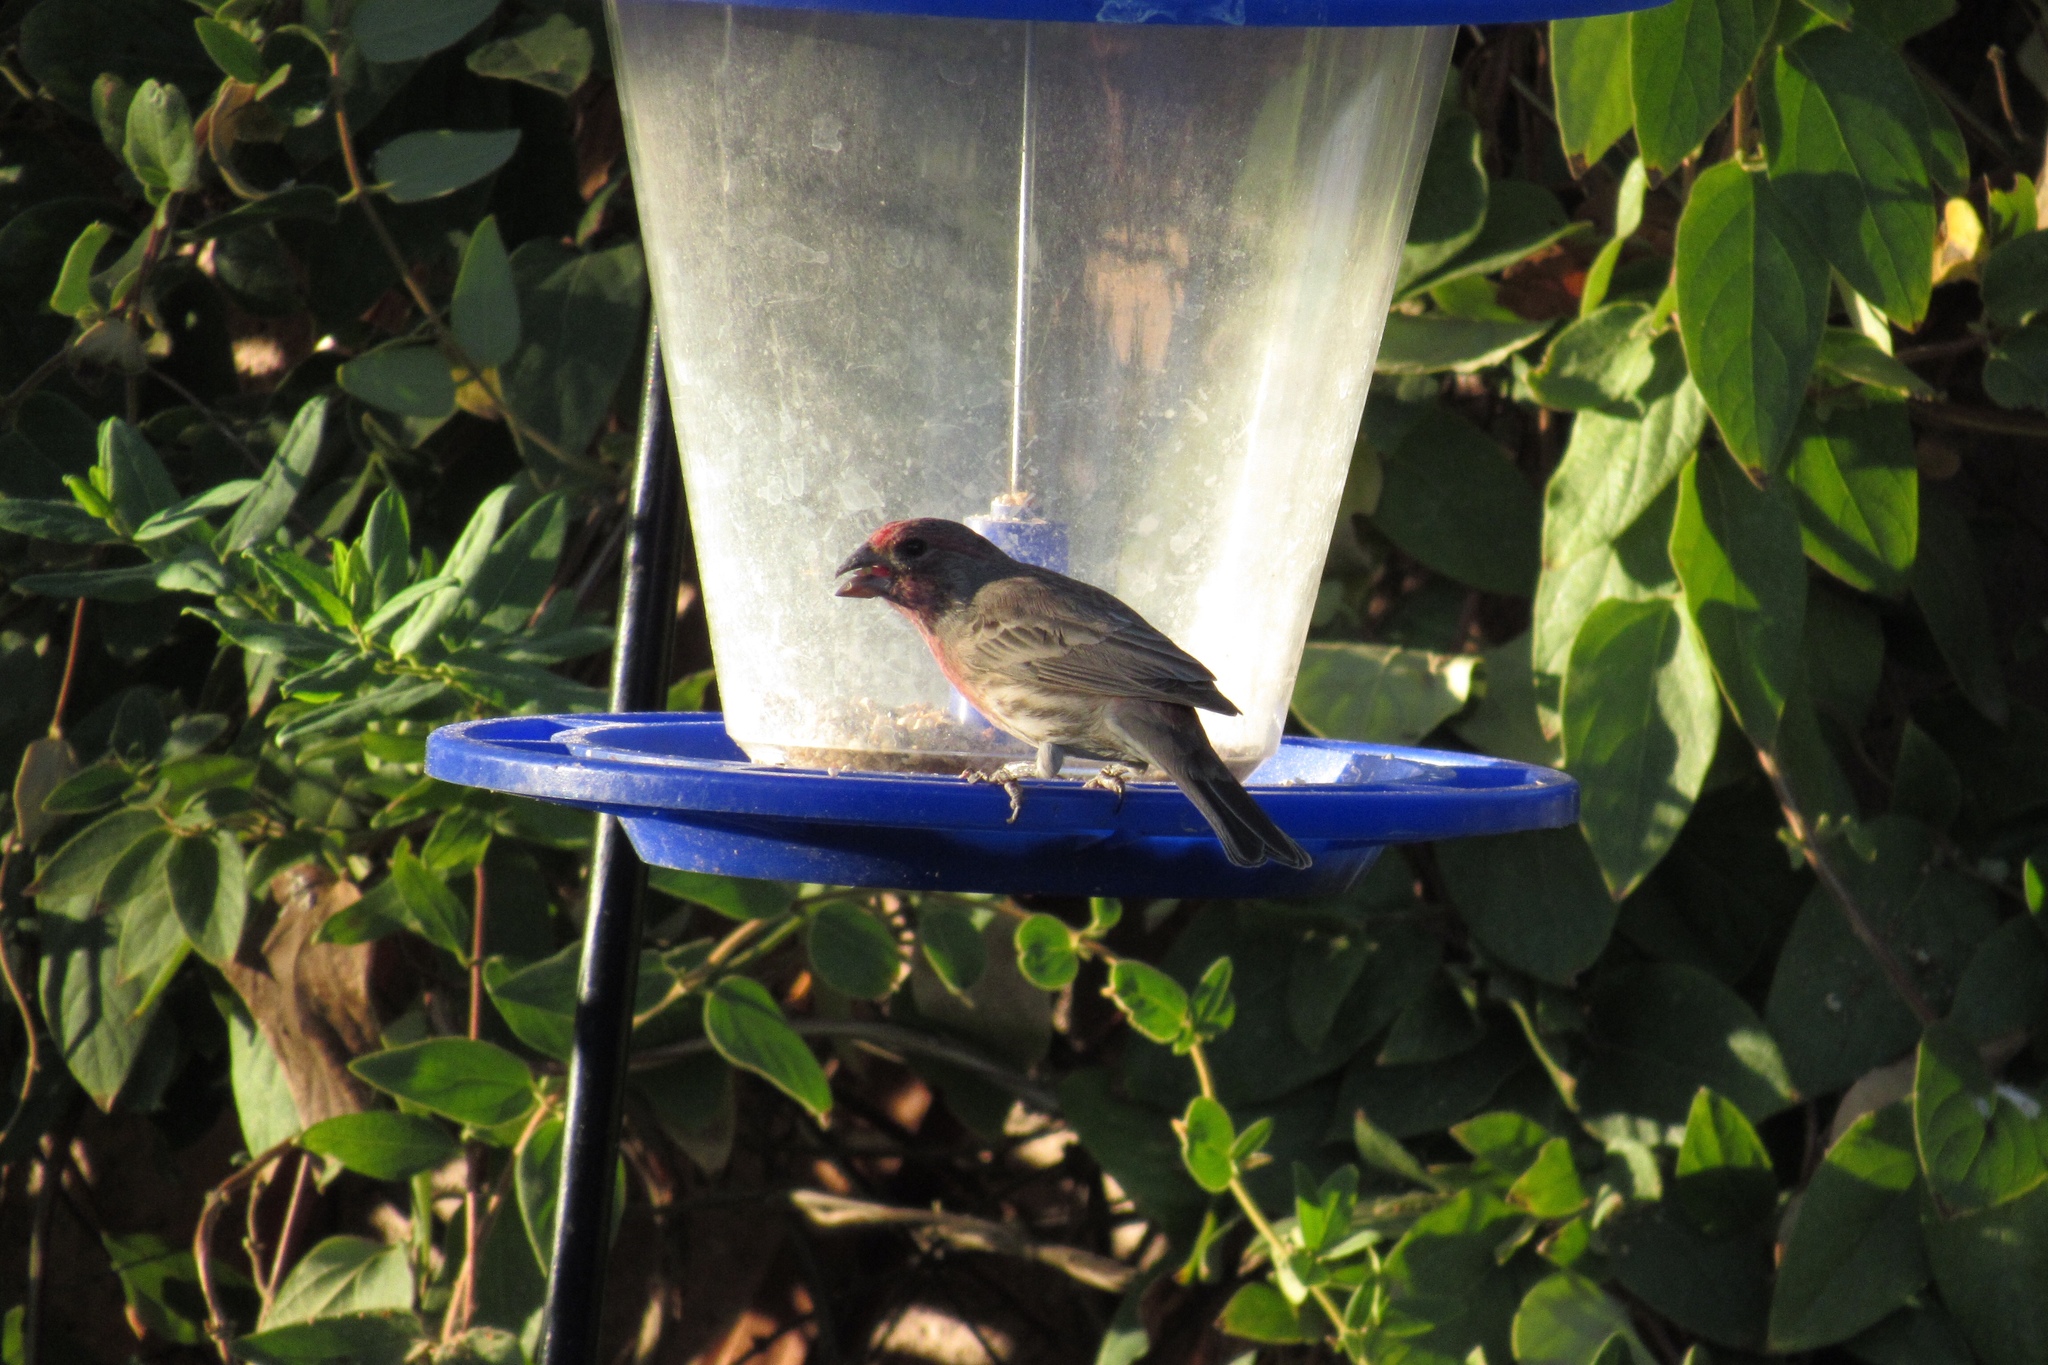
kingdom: Animalia
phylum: Chordata
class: Aves
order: Passeriformes
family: Fringillidae
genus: Haemorhous
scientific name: Haemorhous mexicanus
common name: House finch
